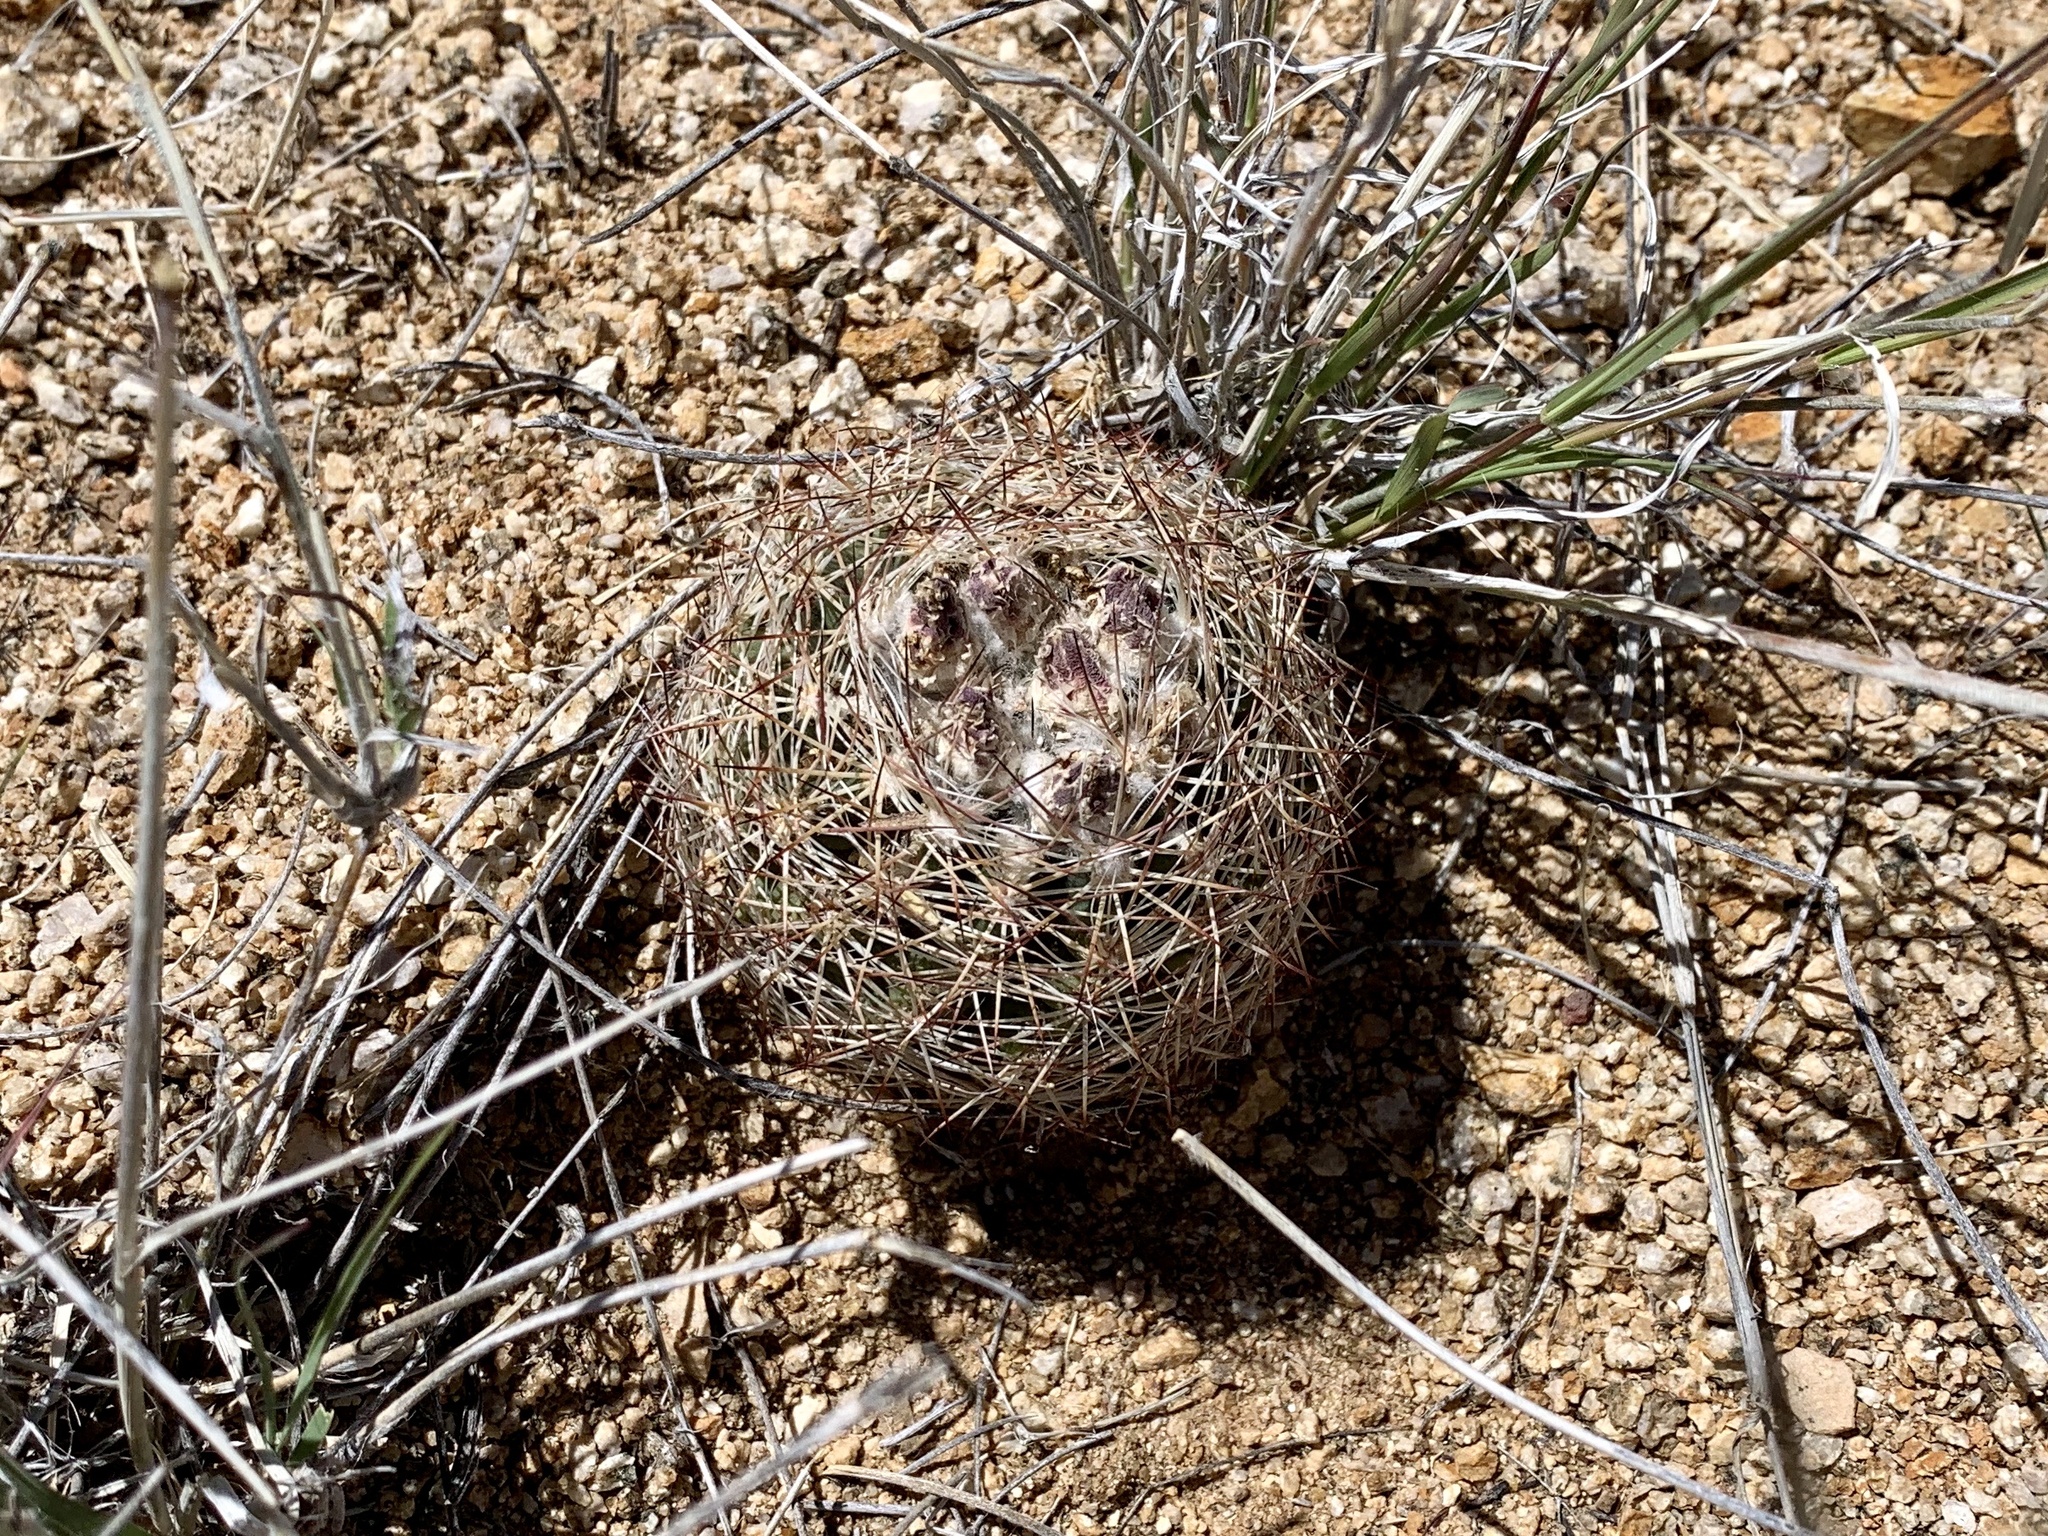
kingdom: Plantae
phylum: Tracheophyta
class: Magnoliopsida
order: Caryophyllales
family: Cactaceae
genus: Sclerocactus
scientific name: Sclerocactus intertextus
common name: White fish-hook cactus
